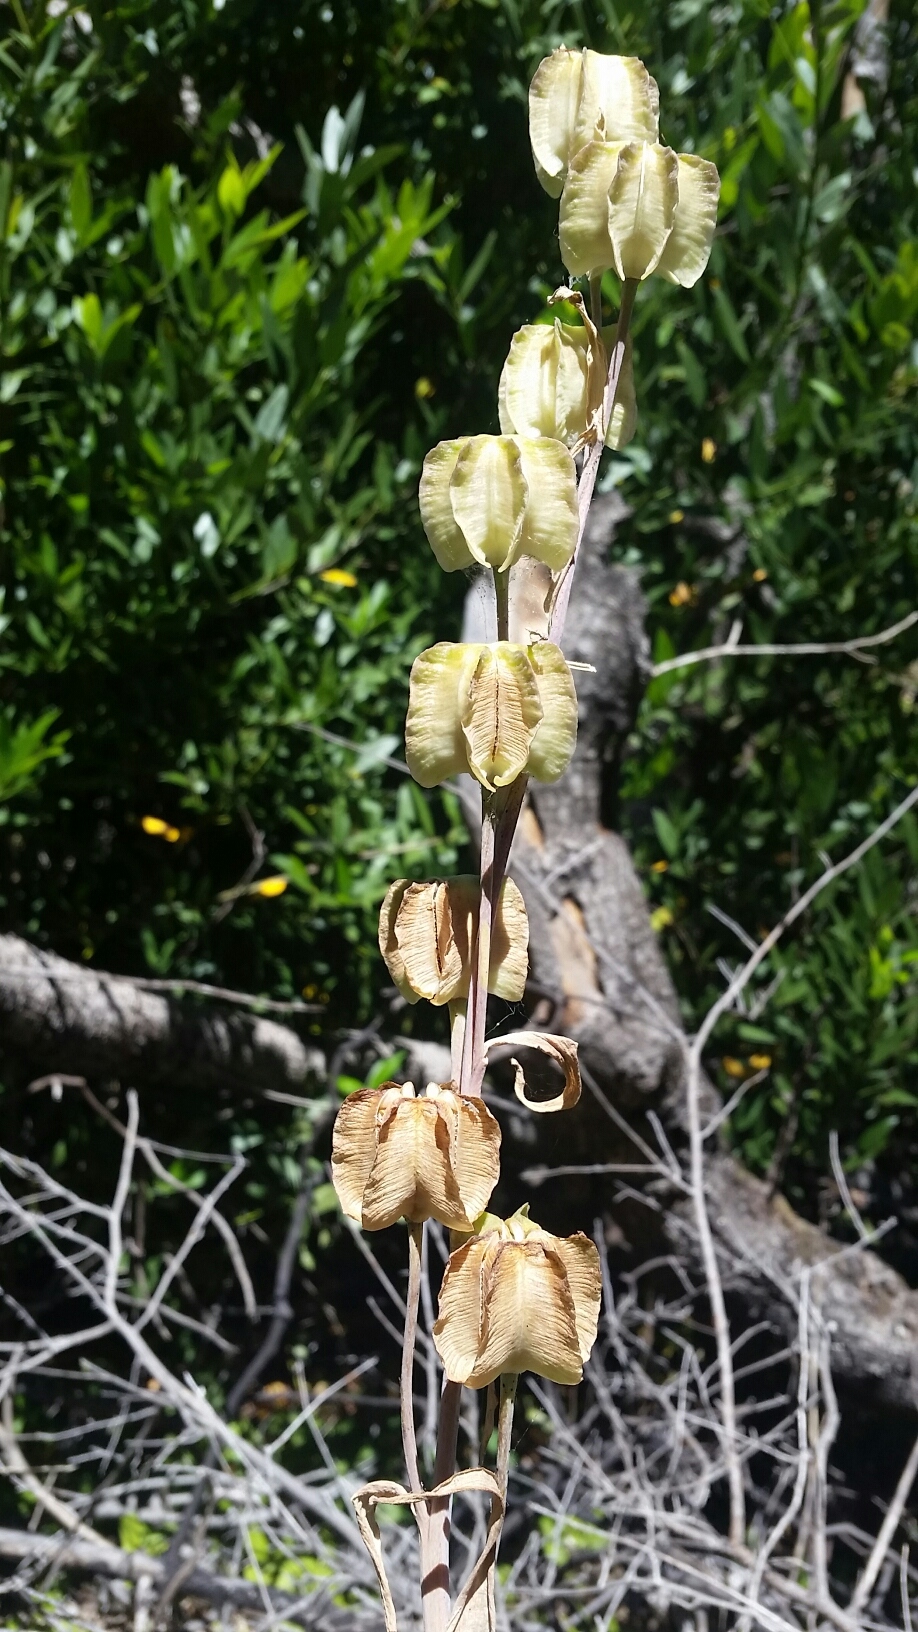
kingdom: Plantae
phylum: Tracheophyta
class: Liliopsida
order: Liliales
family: Liliaceae
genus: Fritillaria
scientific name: Fritillaria affinis
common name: Ojai fritillary
